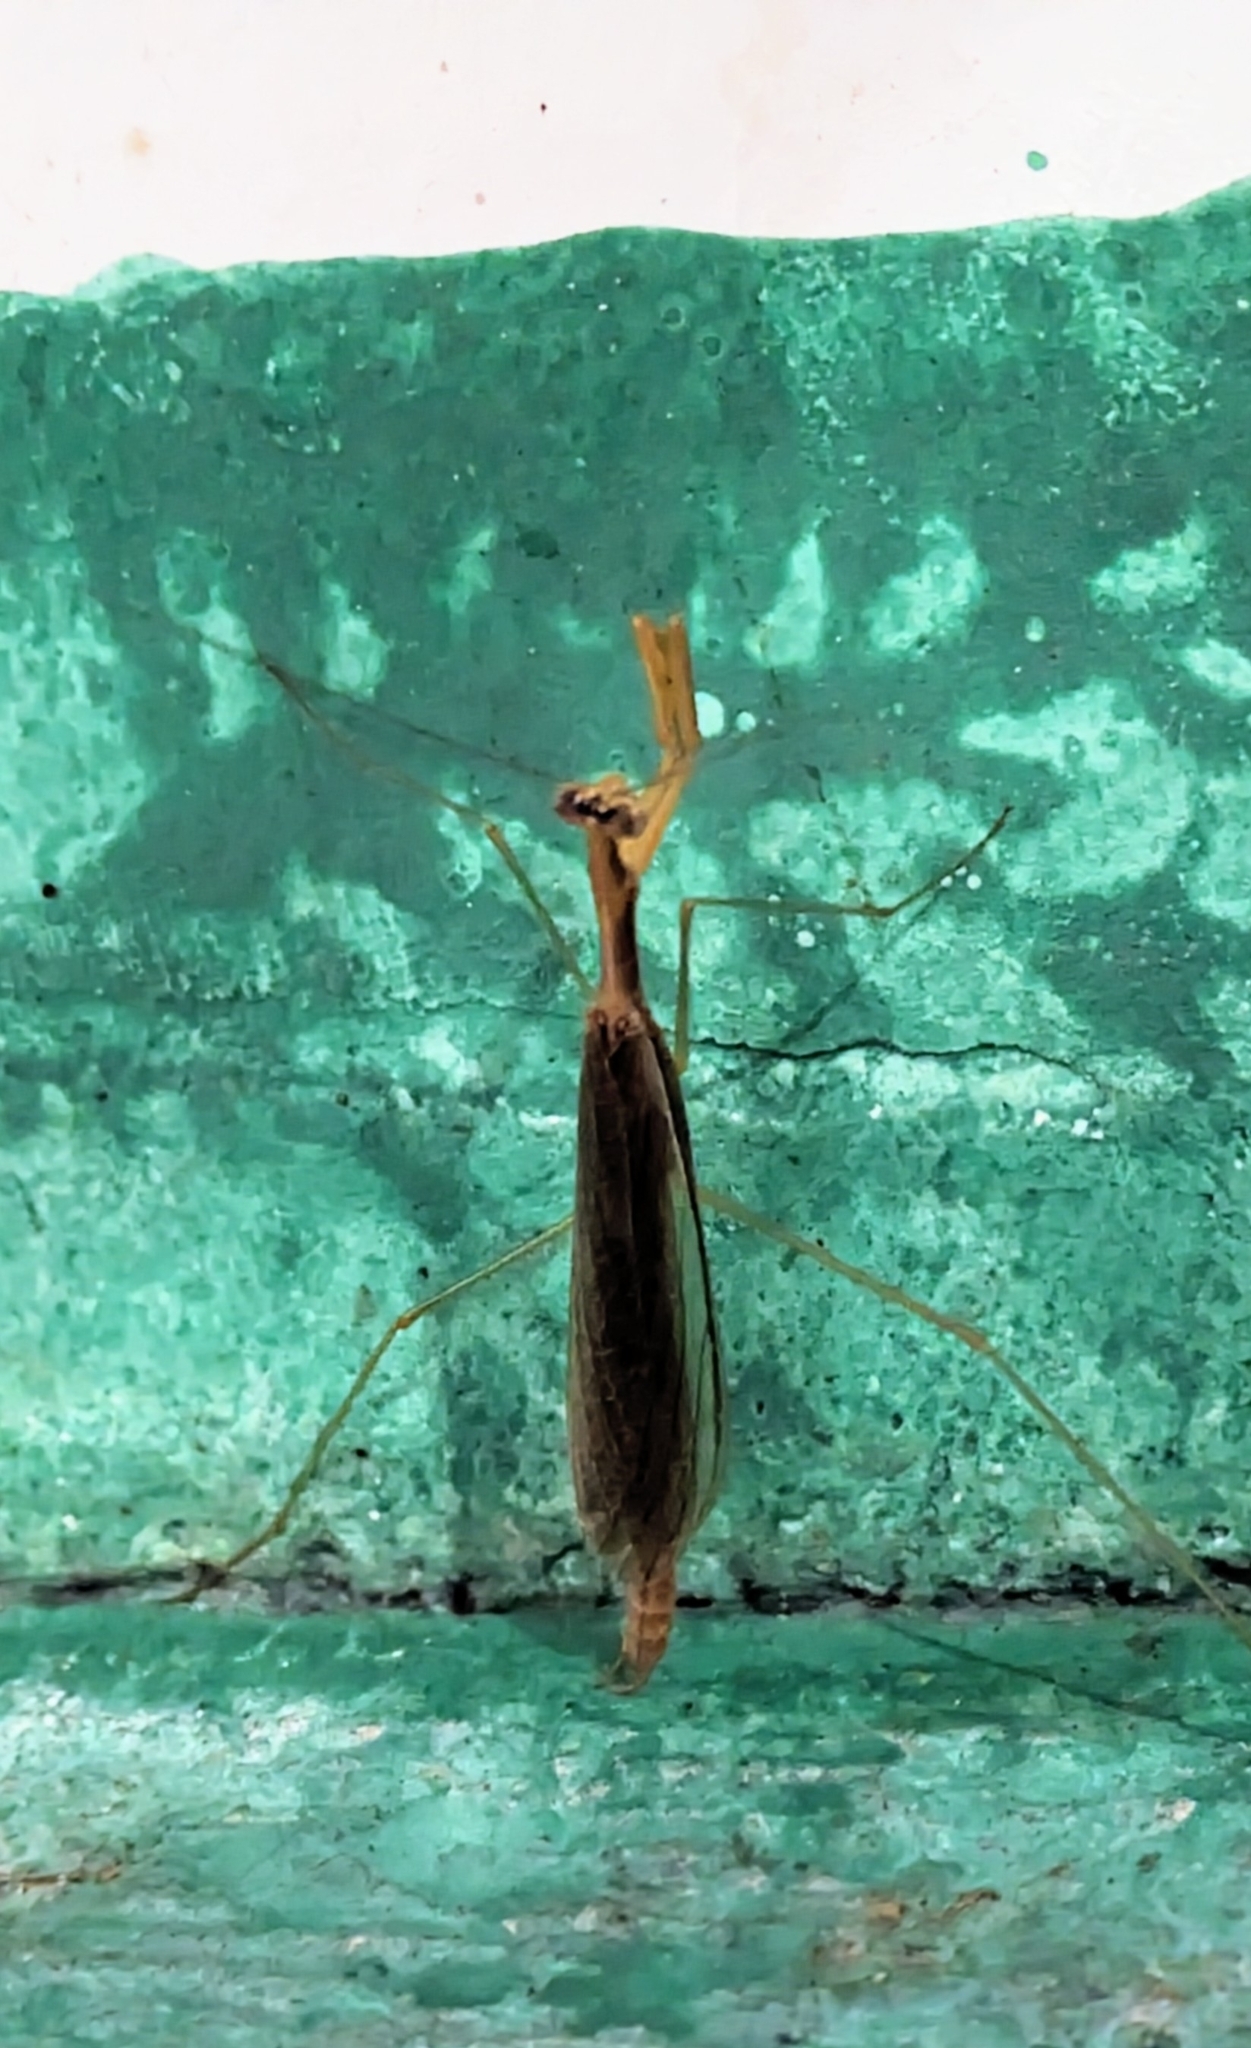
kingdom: Animalia
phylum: Arthropoda
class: Insecta
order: Mantodea
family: Thespidae
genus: Galapagia
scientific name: Galapagia solitaria
